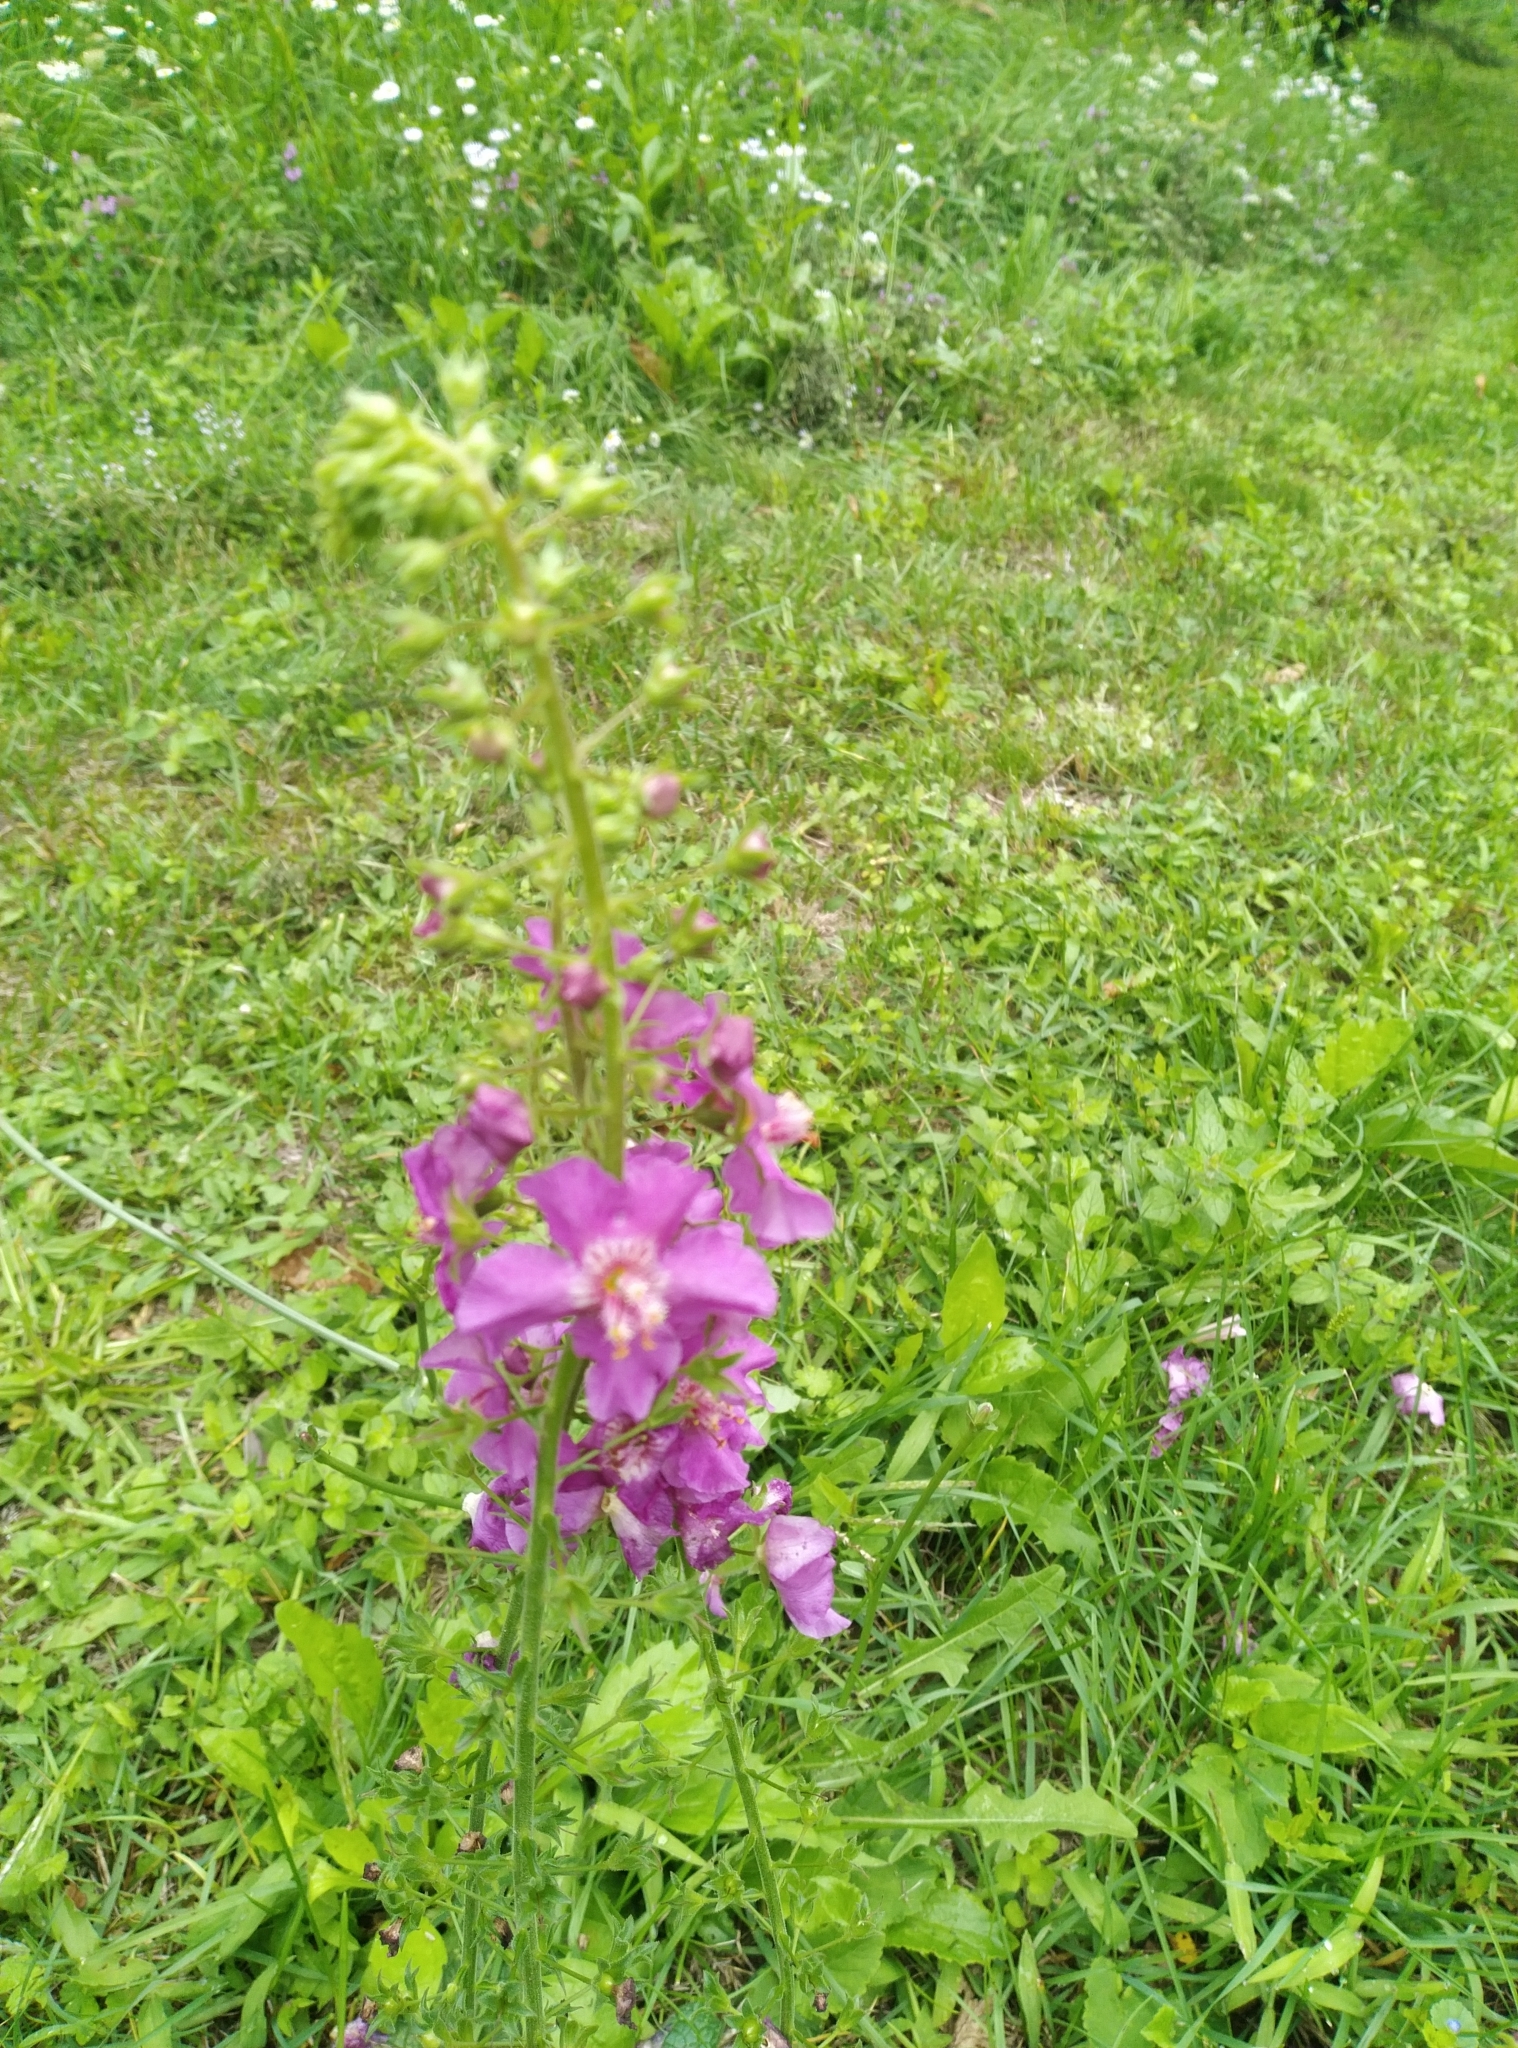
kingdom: Plantae
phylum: Tracheophyta
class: Magnoliopsida
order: Lamiales
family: Scrophulariaceae
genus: Verbascum
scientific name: Verbascum phoeniceum
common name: Purple mullein
